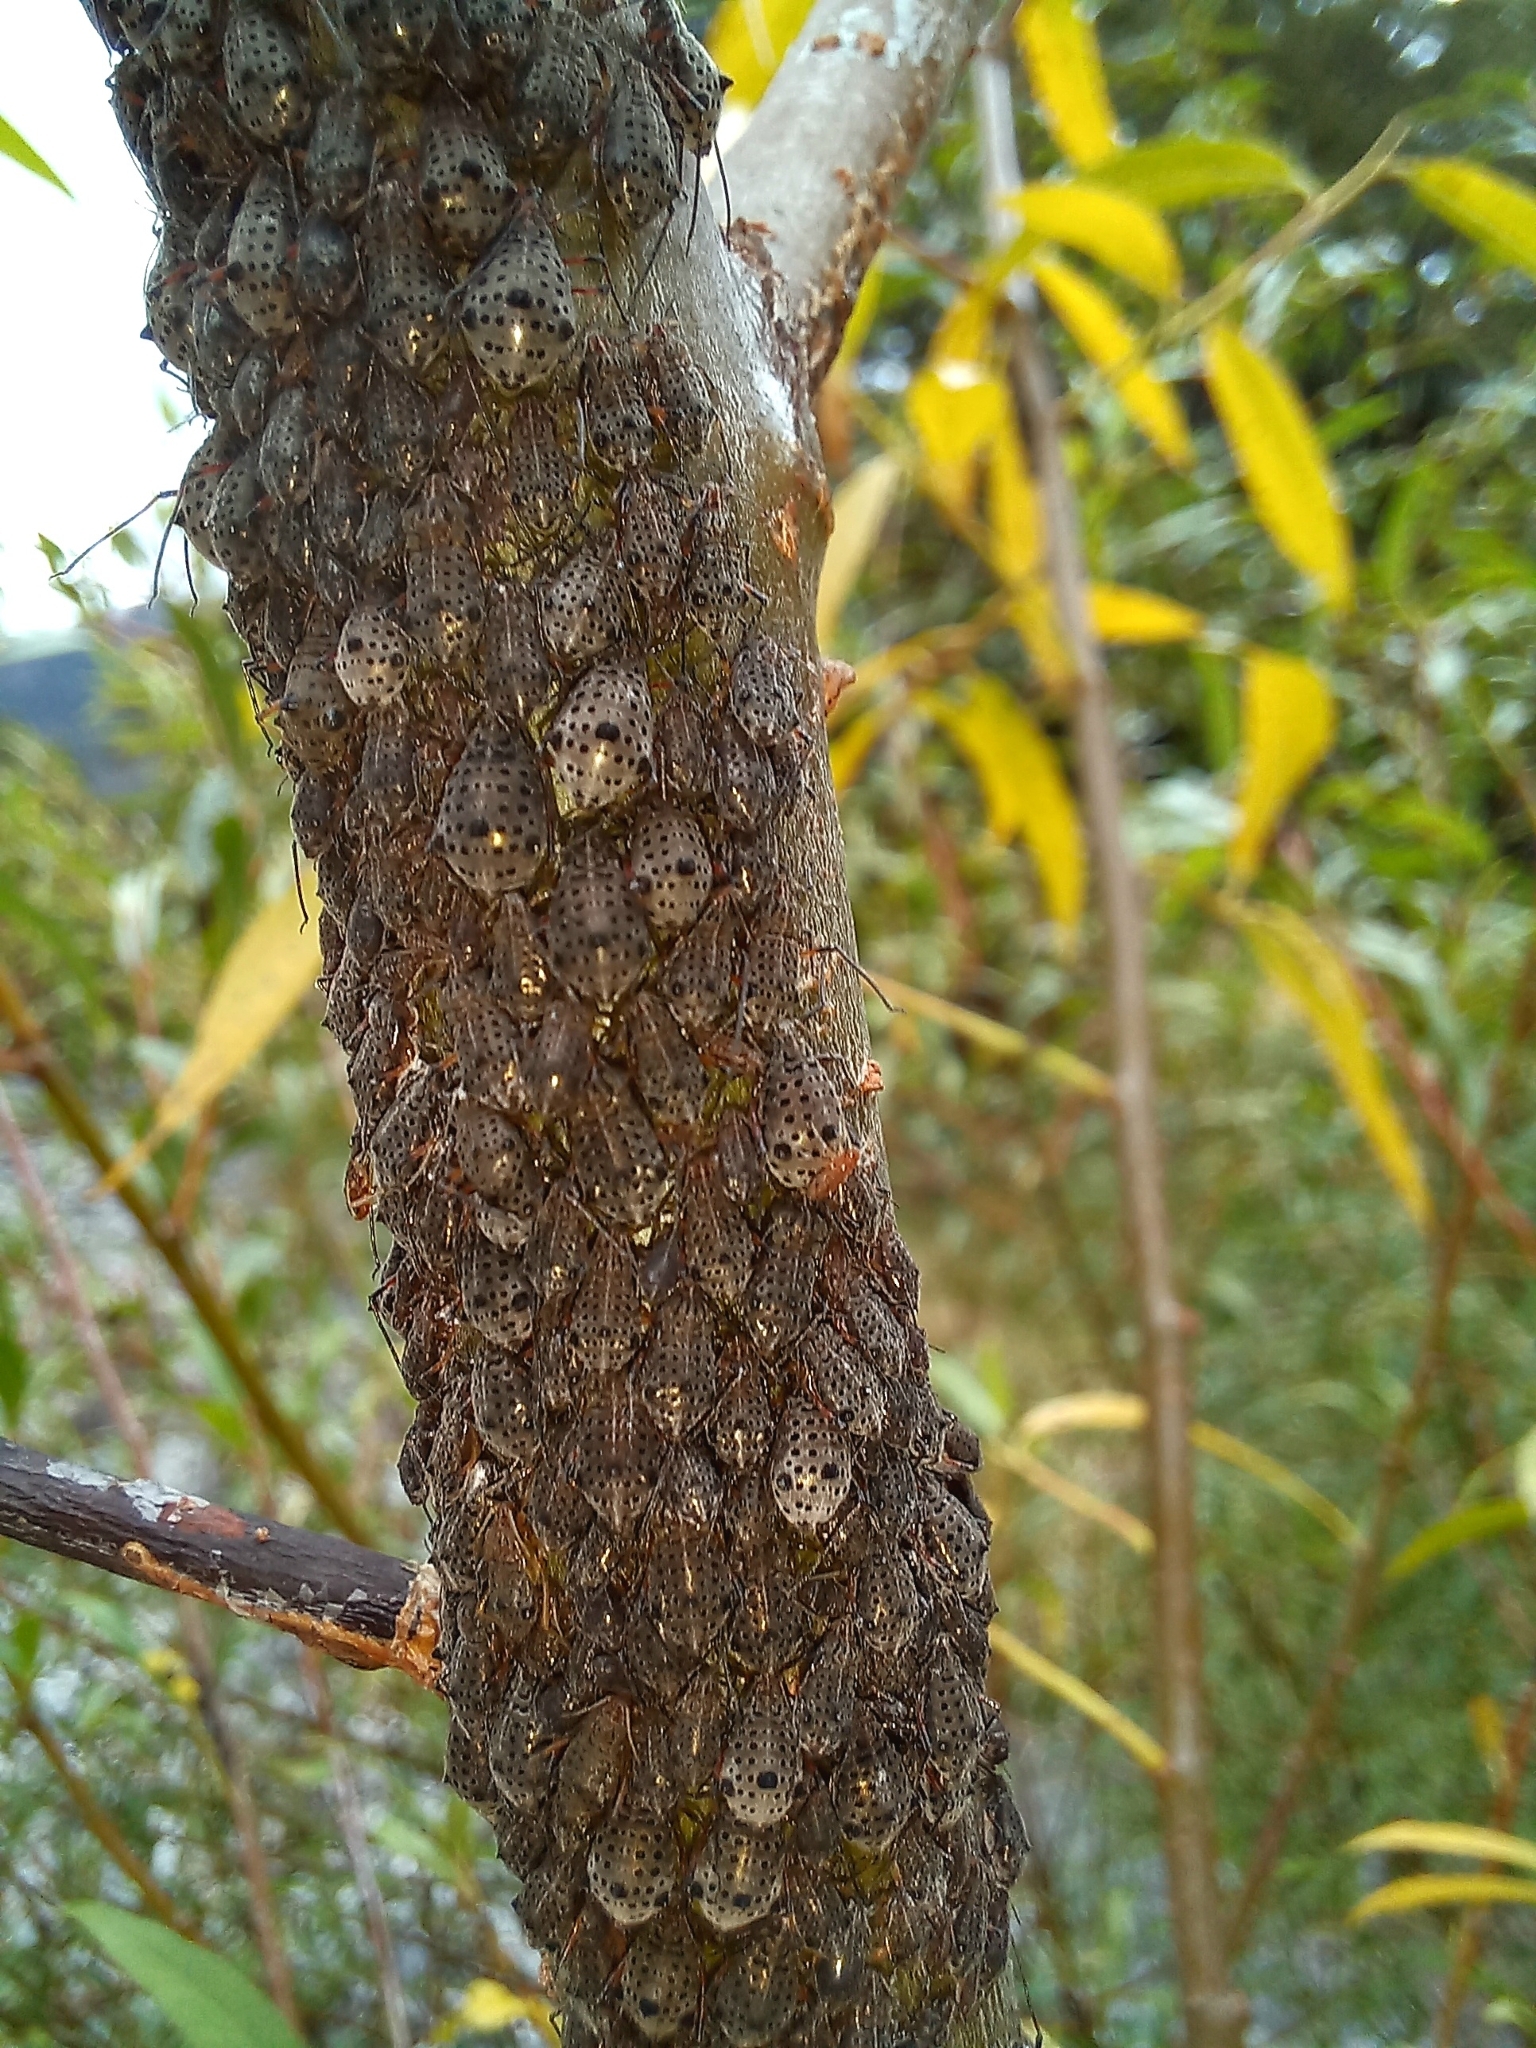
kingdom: Animalia
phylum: Arthropoda
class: Insecta
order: Hemiptera
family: Aphididae
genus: Tuberolachnus
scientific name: Tuberolachnus salignus
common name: Giant willow aphid
